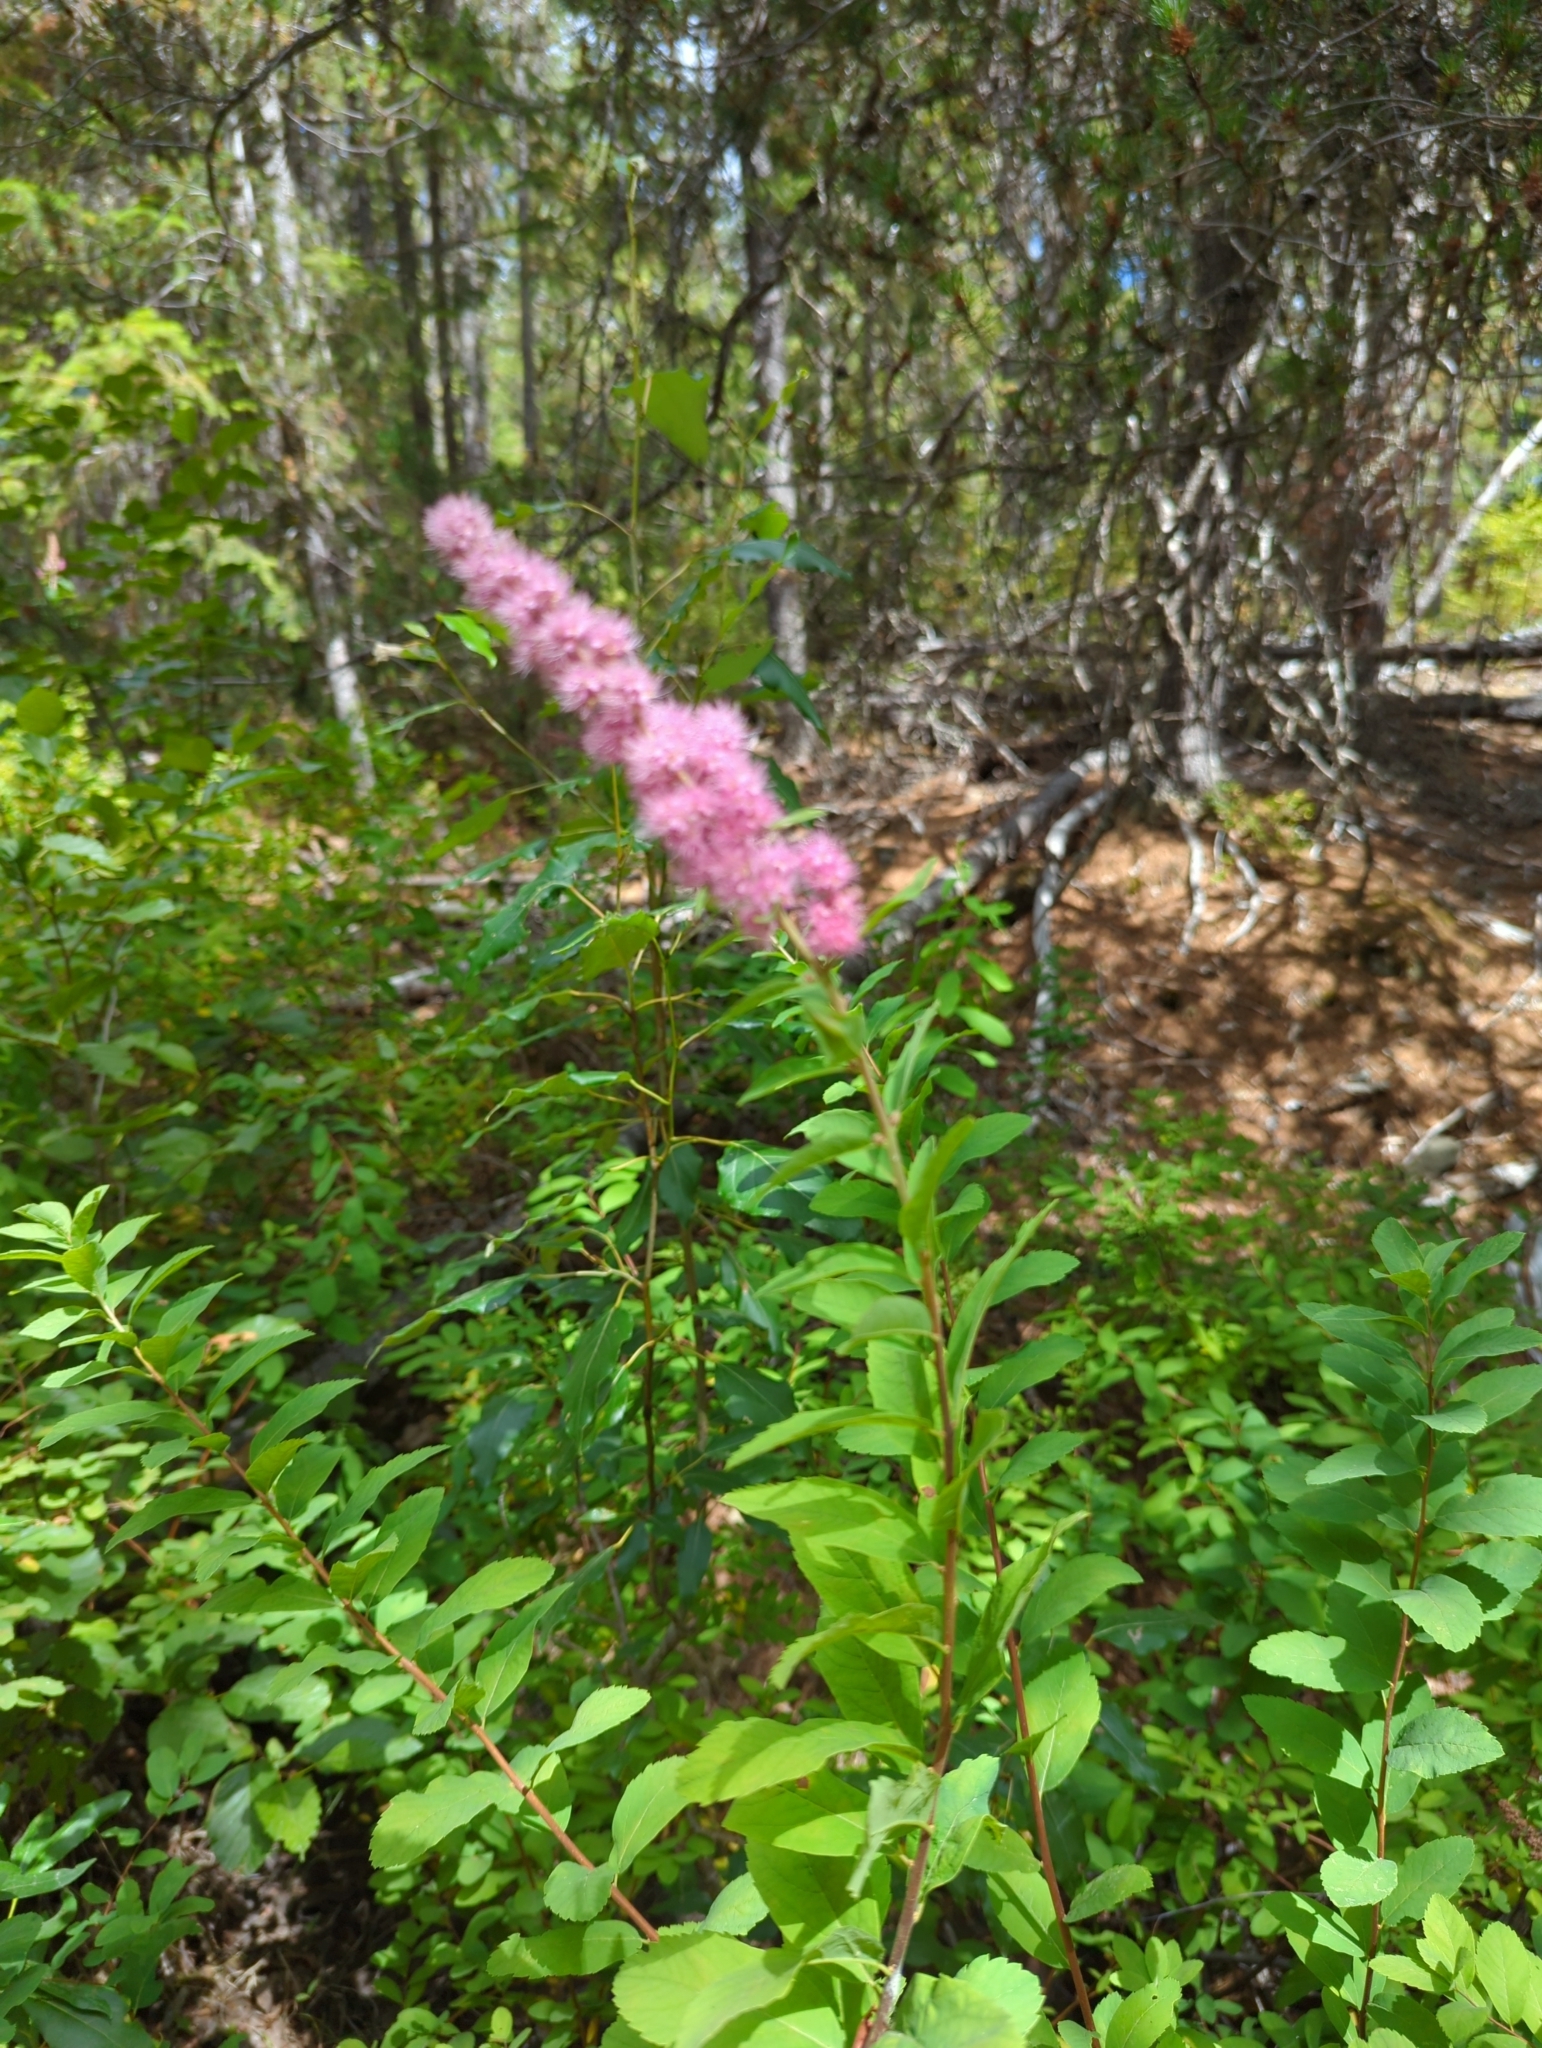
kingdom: Plantae
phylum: Tracheophyta
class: Magnoliopsida
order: Rosales
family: Rosaceae
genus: Spiraea
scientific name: Spiraea douglasii
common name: Steeplebush
